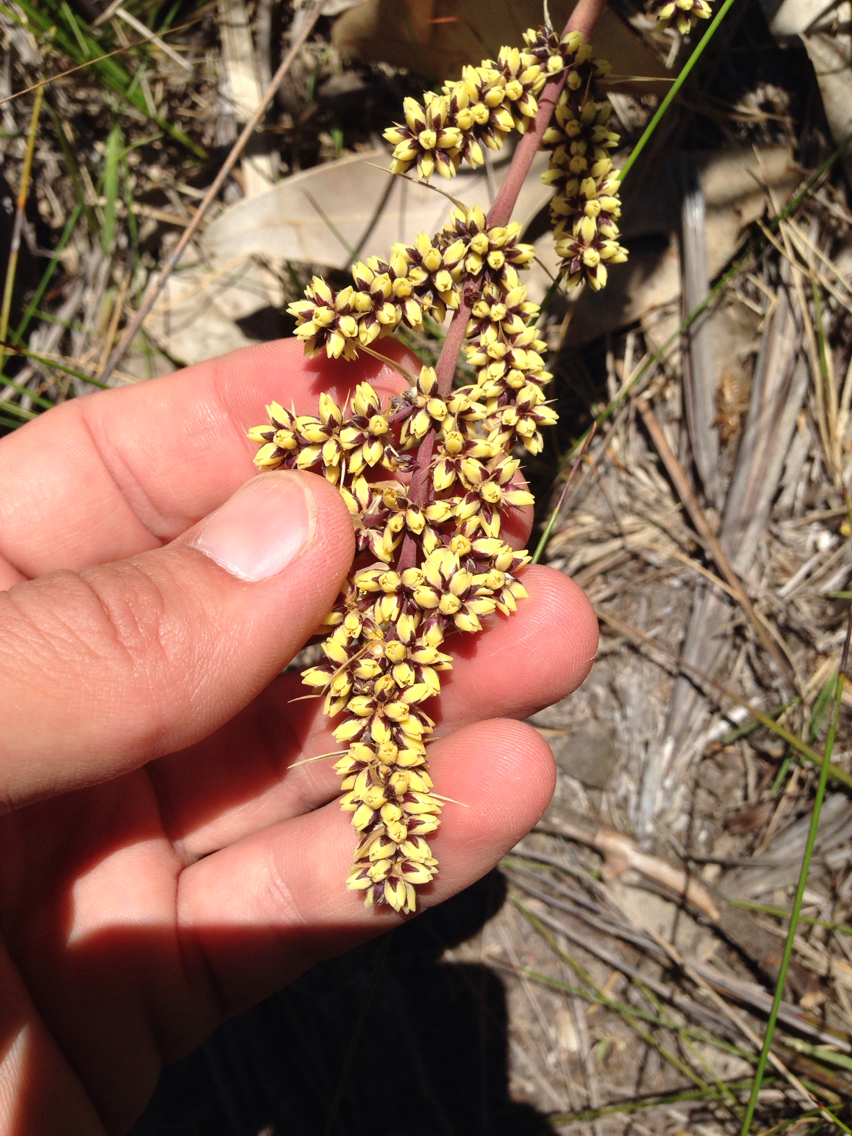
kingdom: Plantae
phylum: Tracheophyta
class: Liliopsida
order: Asparagales
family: Asparagaceae
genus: Lomandra
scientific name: Lomandra longifolia
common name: Longleaf mat-rush
